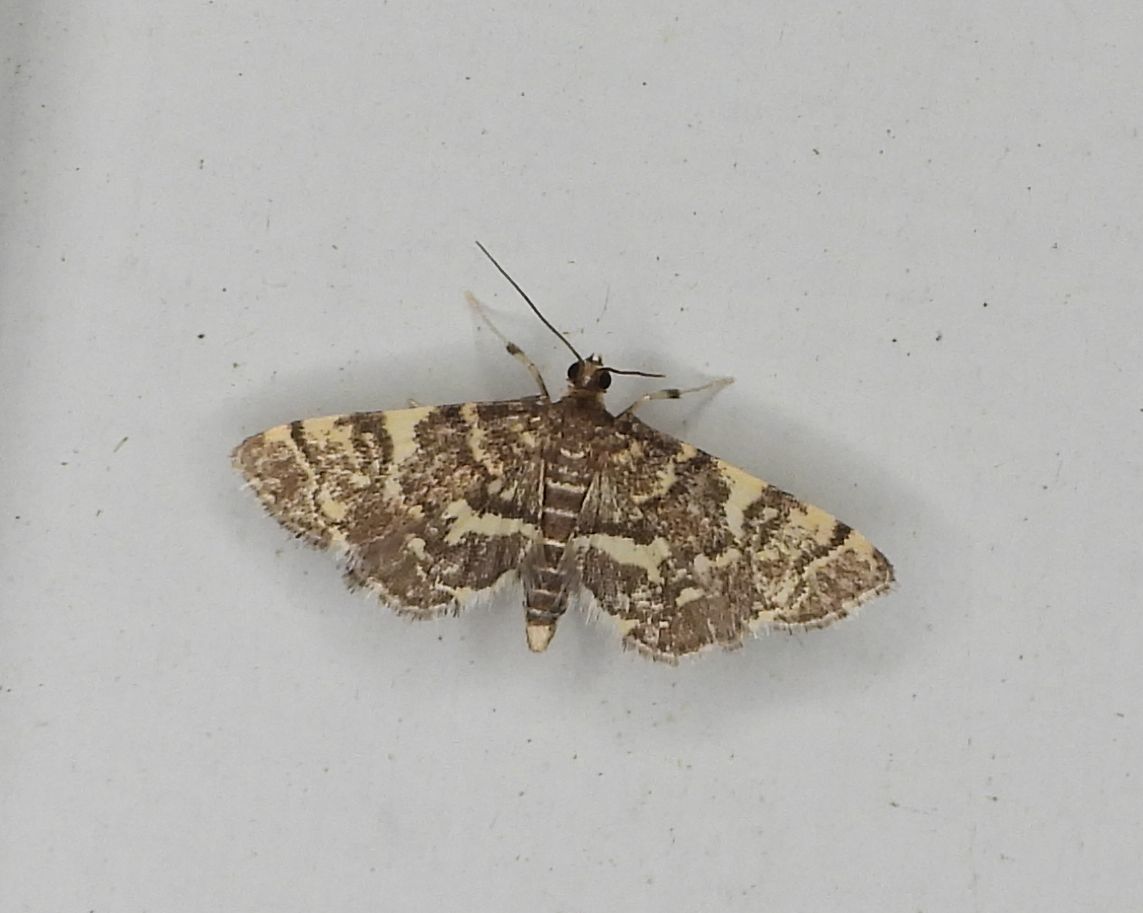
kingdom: Animalia
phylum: Arthropoda
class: Insecta
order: Lepidoptera
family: Crambidae
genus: Anageshna
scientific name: Anageshna primordialis
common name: Yellow-spotted webworm moth
